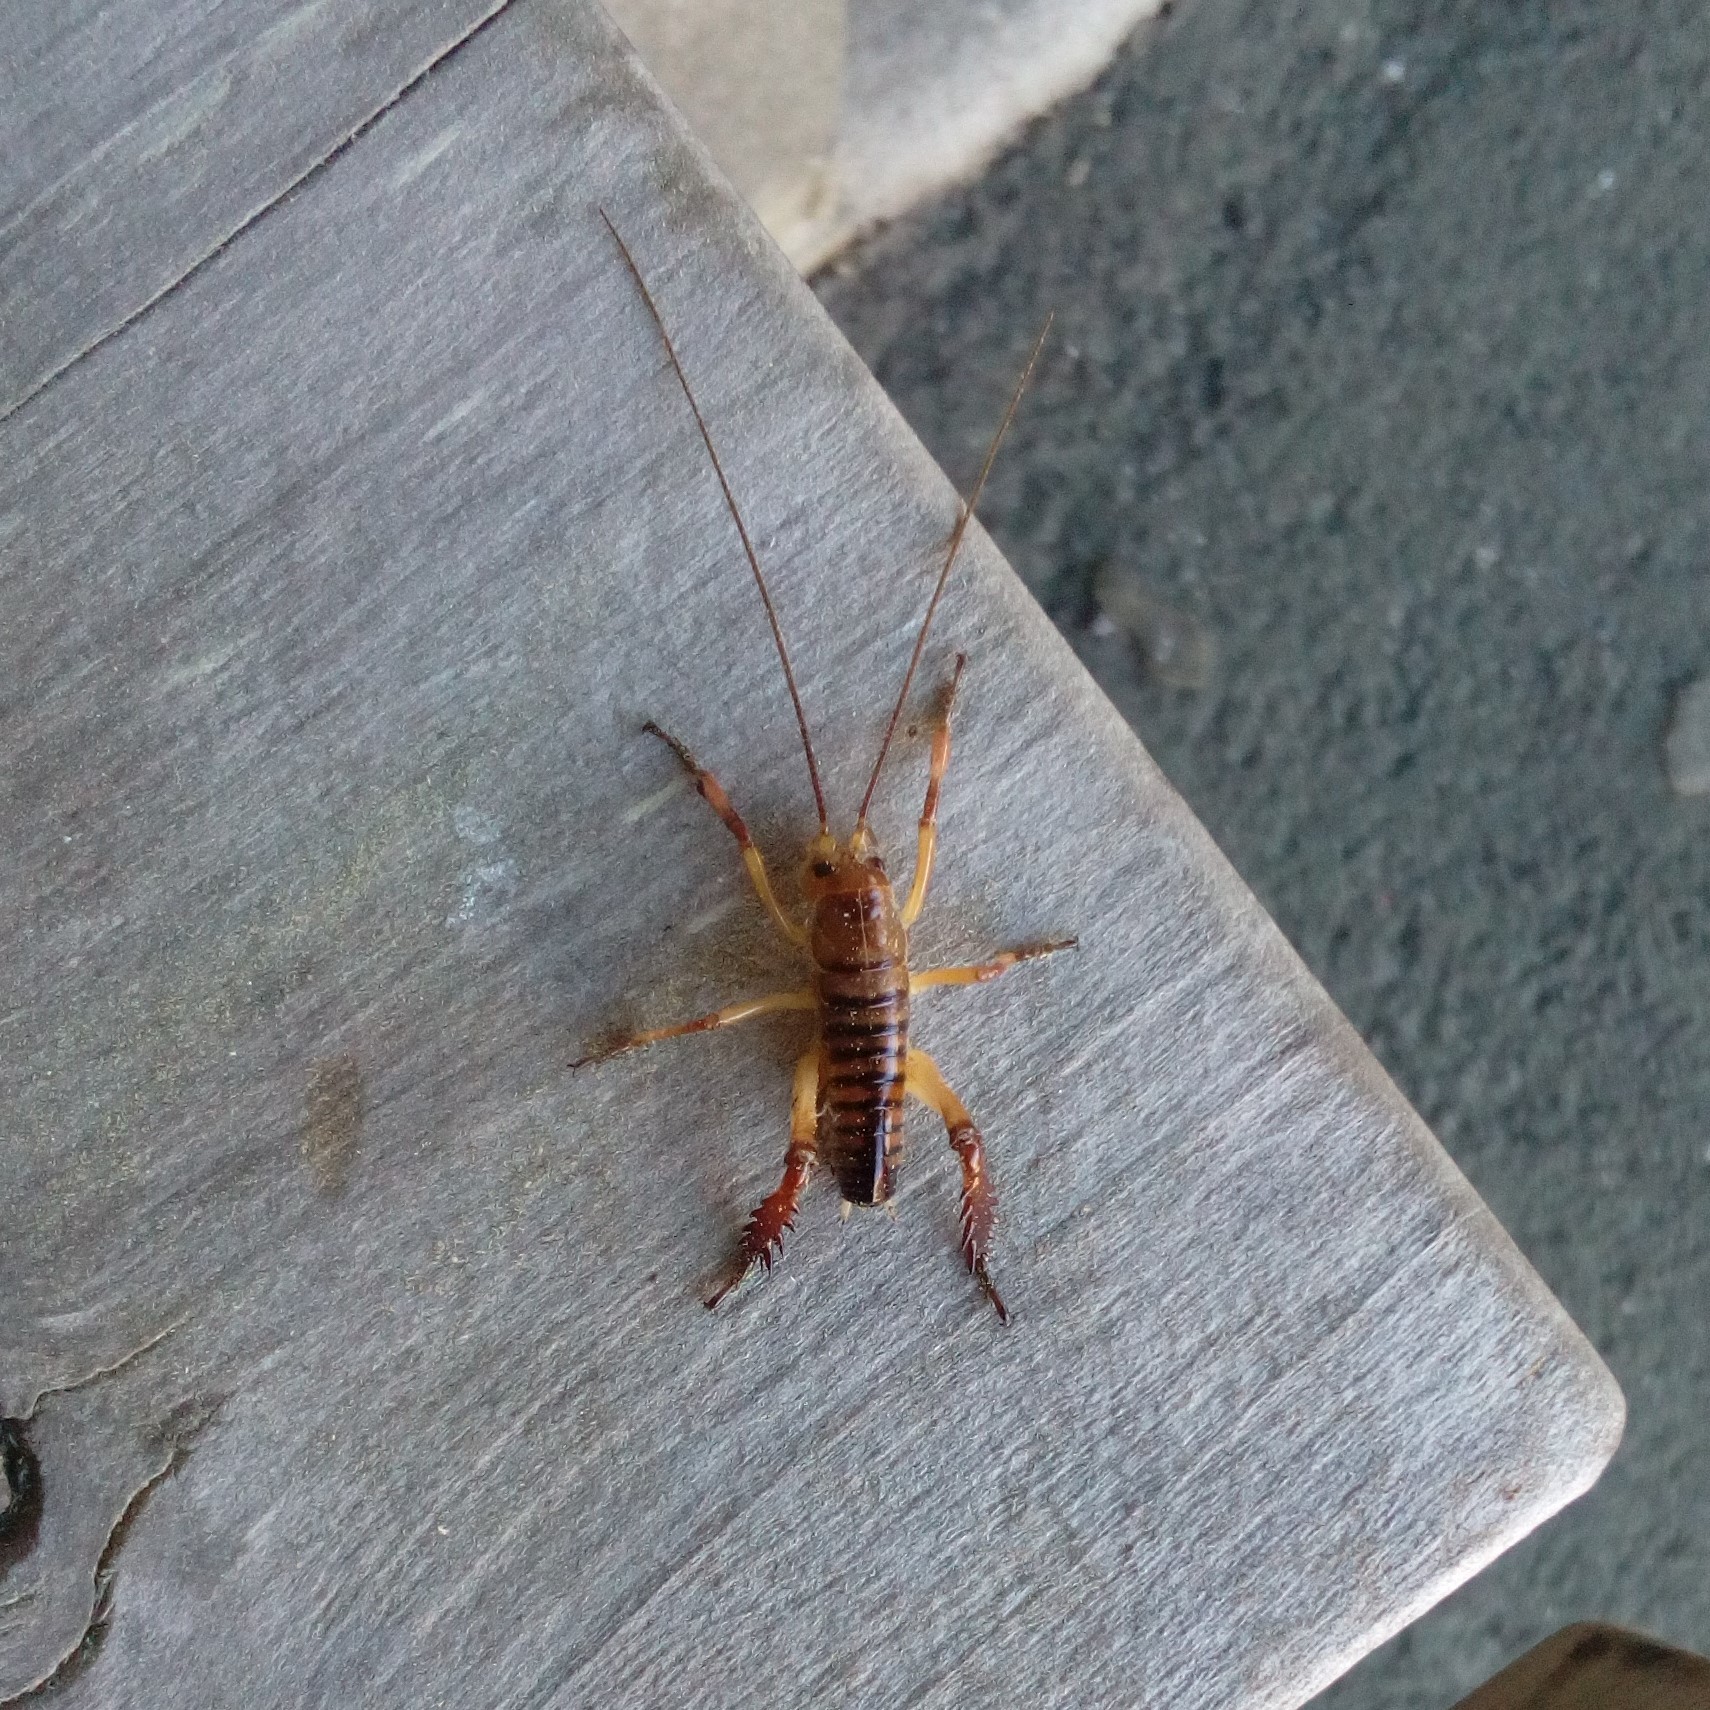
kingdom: Animalia
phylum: Arthropoda
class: Insecta
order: Orthoptera
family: Anostostomatidae
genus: Hemideina
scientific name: Hemideina crassidens
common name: Wellington tree weta
